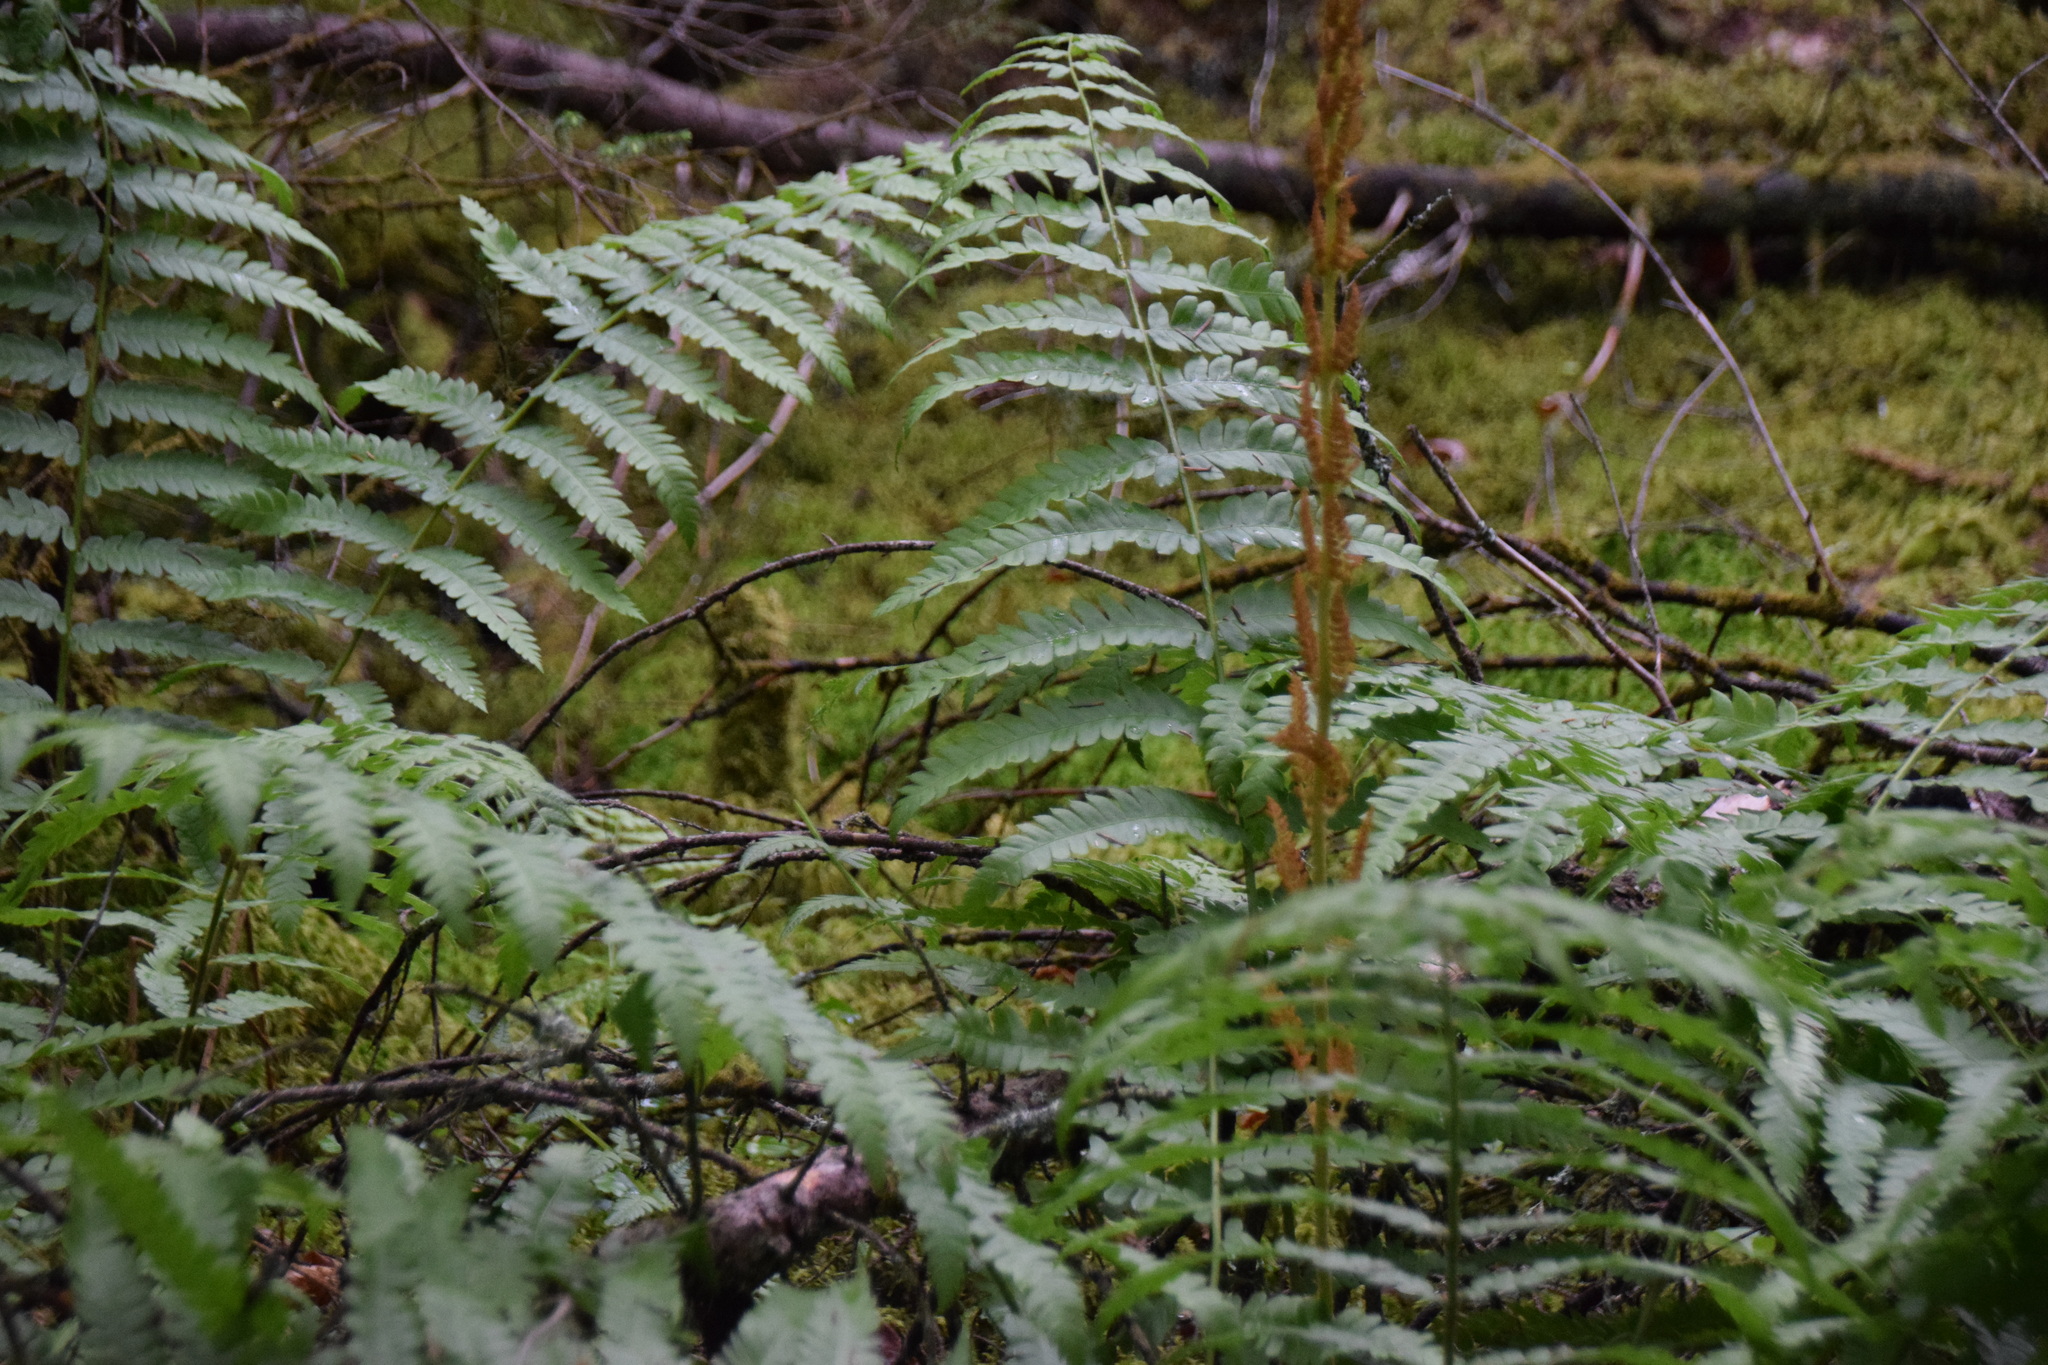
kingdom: Plantae
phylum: Tracheophyta
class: Polypodiopsida
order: Osmundales
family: Osmundaceae
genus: Osmundastrum
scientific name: Osmundastrum cinnamomeum
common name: Cinnamon fern
